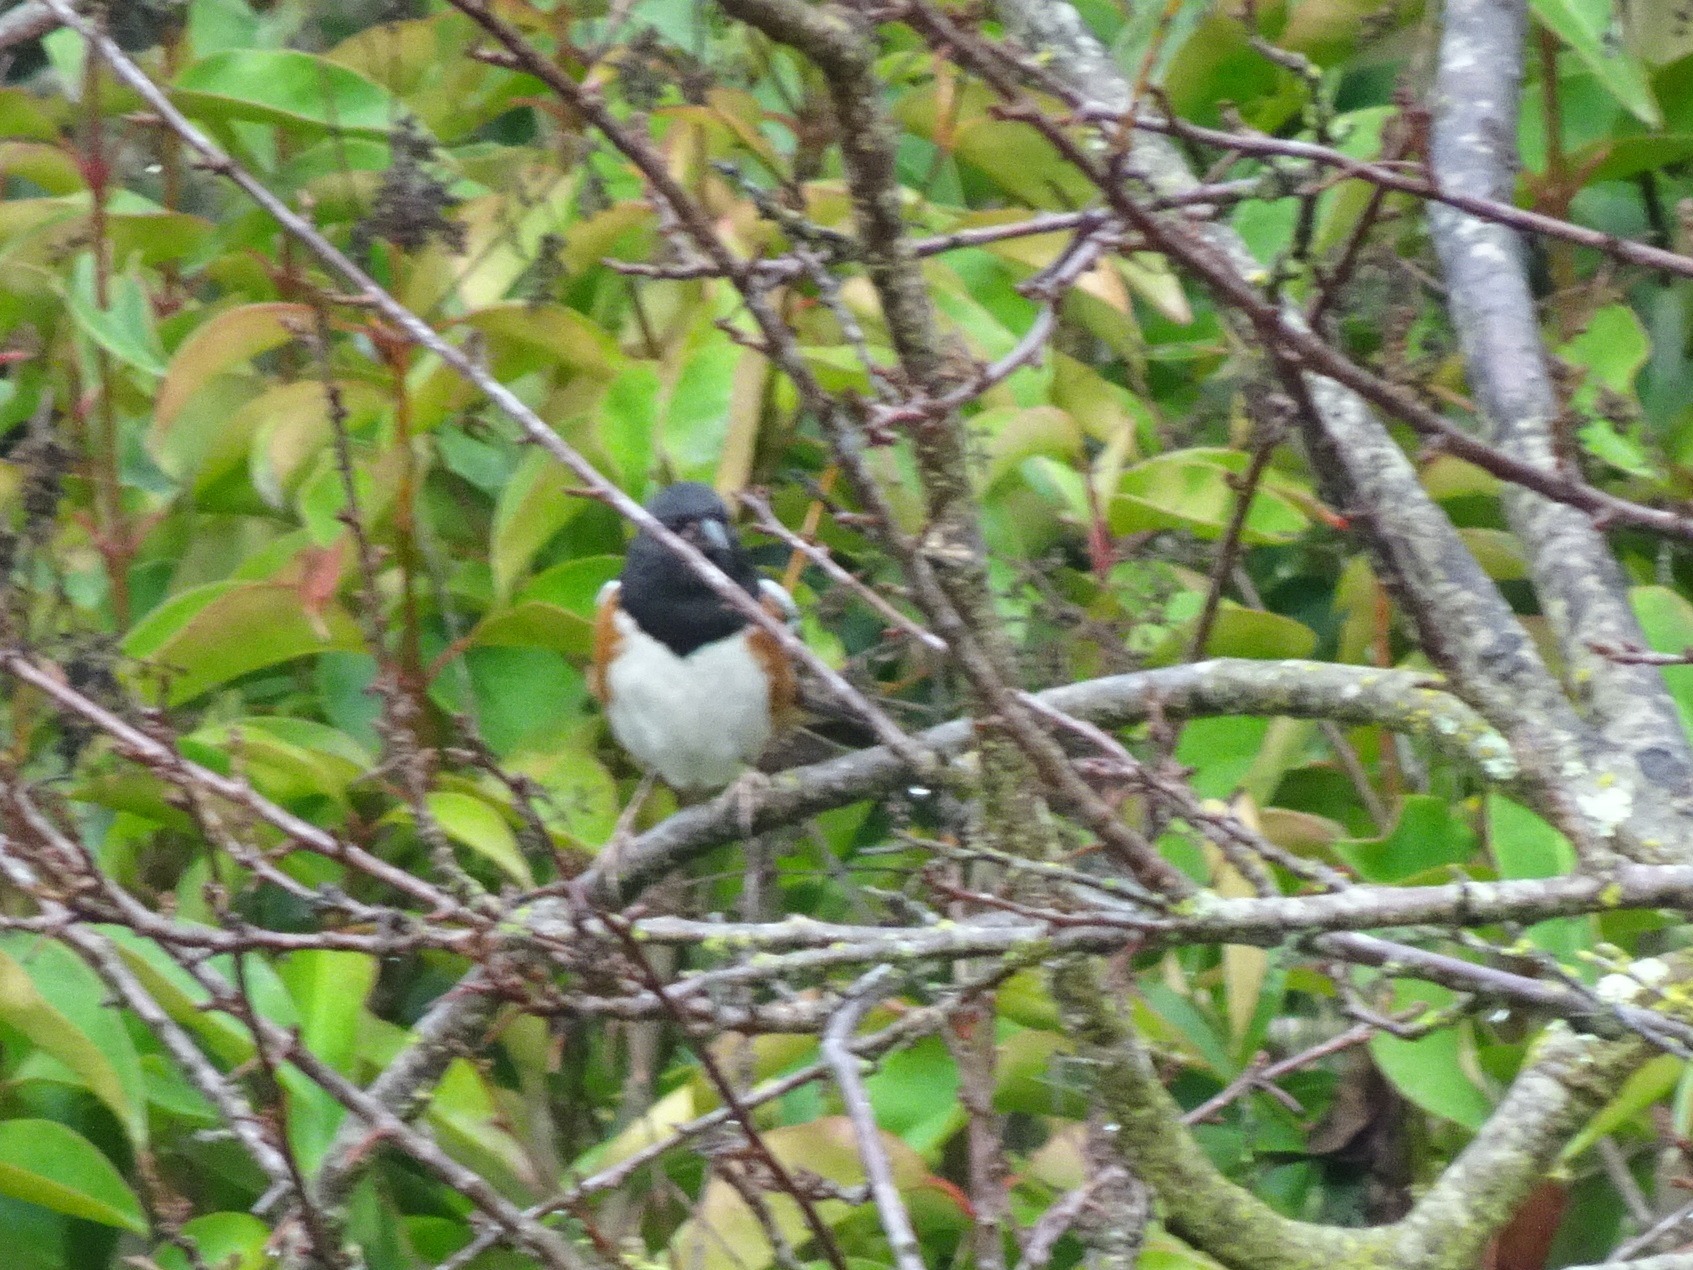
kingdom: Animalia
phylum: Chordata
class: Aves
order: Passeriformes
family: Passerellidae
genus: Pipilo
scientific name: Pipilo maculatus
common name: Spotted towhee
